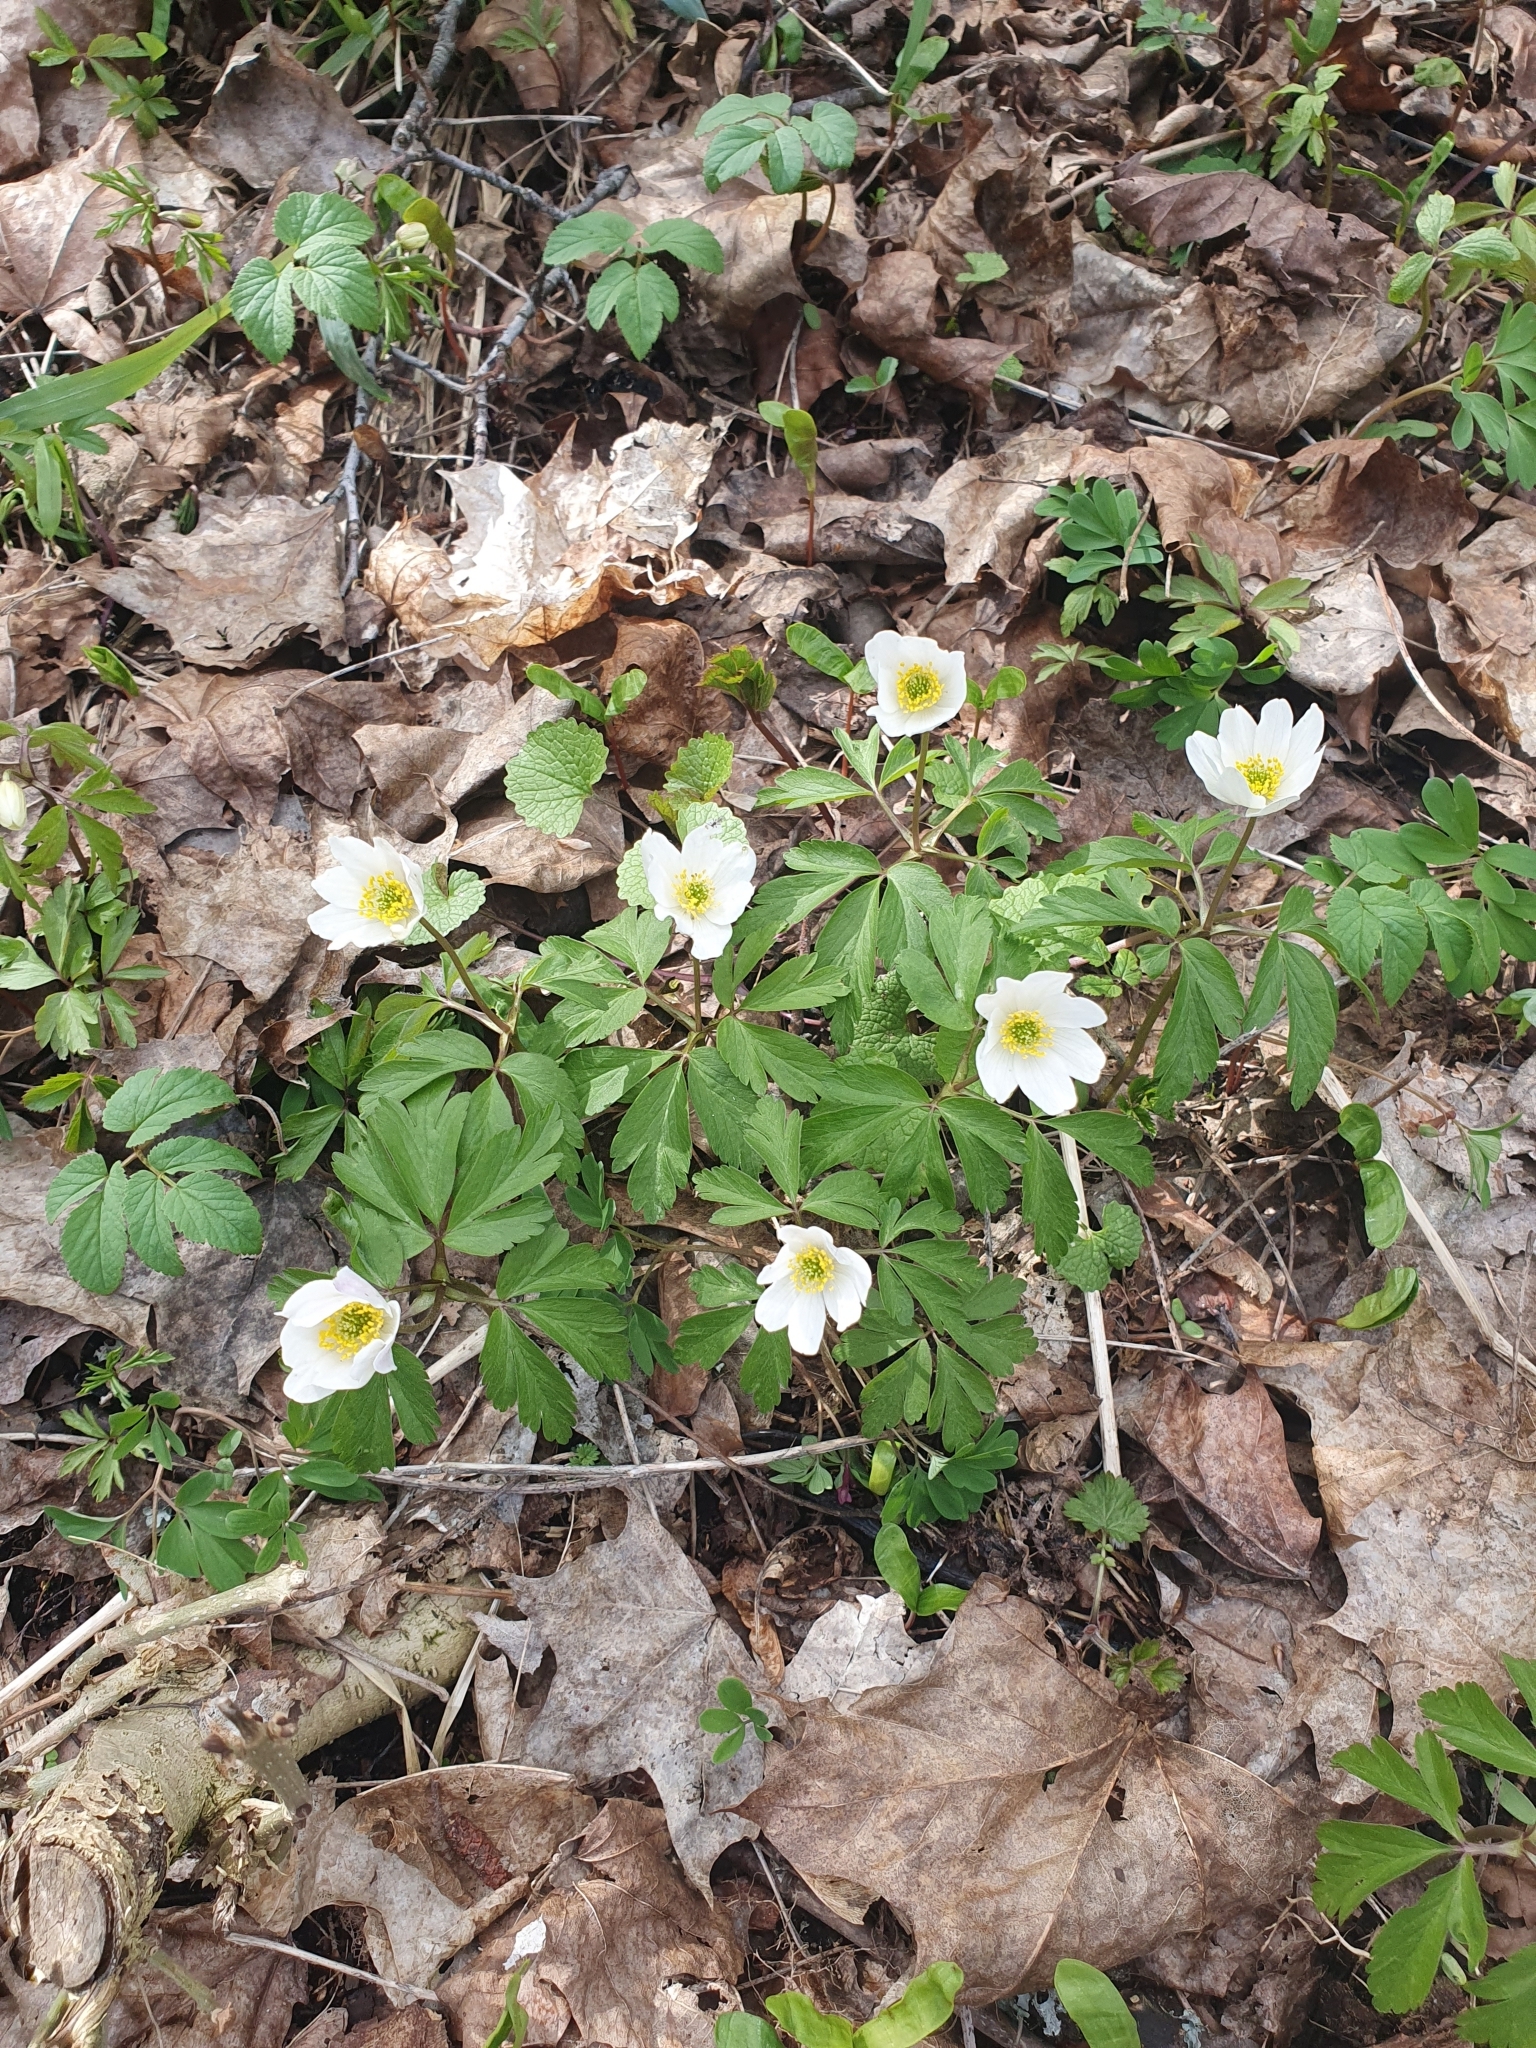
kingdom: Plantae
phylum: Tracheophyta
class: Magnoliopsida
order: Ranunculales
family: Ranunculaceae
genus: Anemone
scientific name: Anemone nemorosa
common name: Wood anemone
